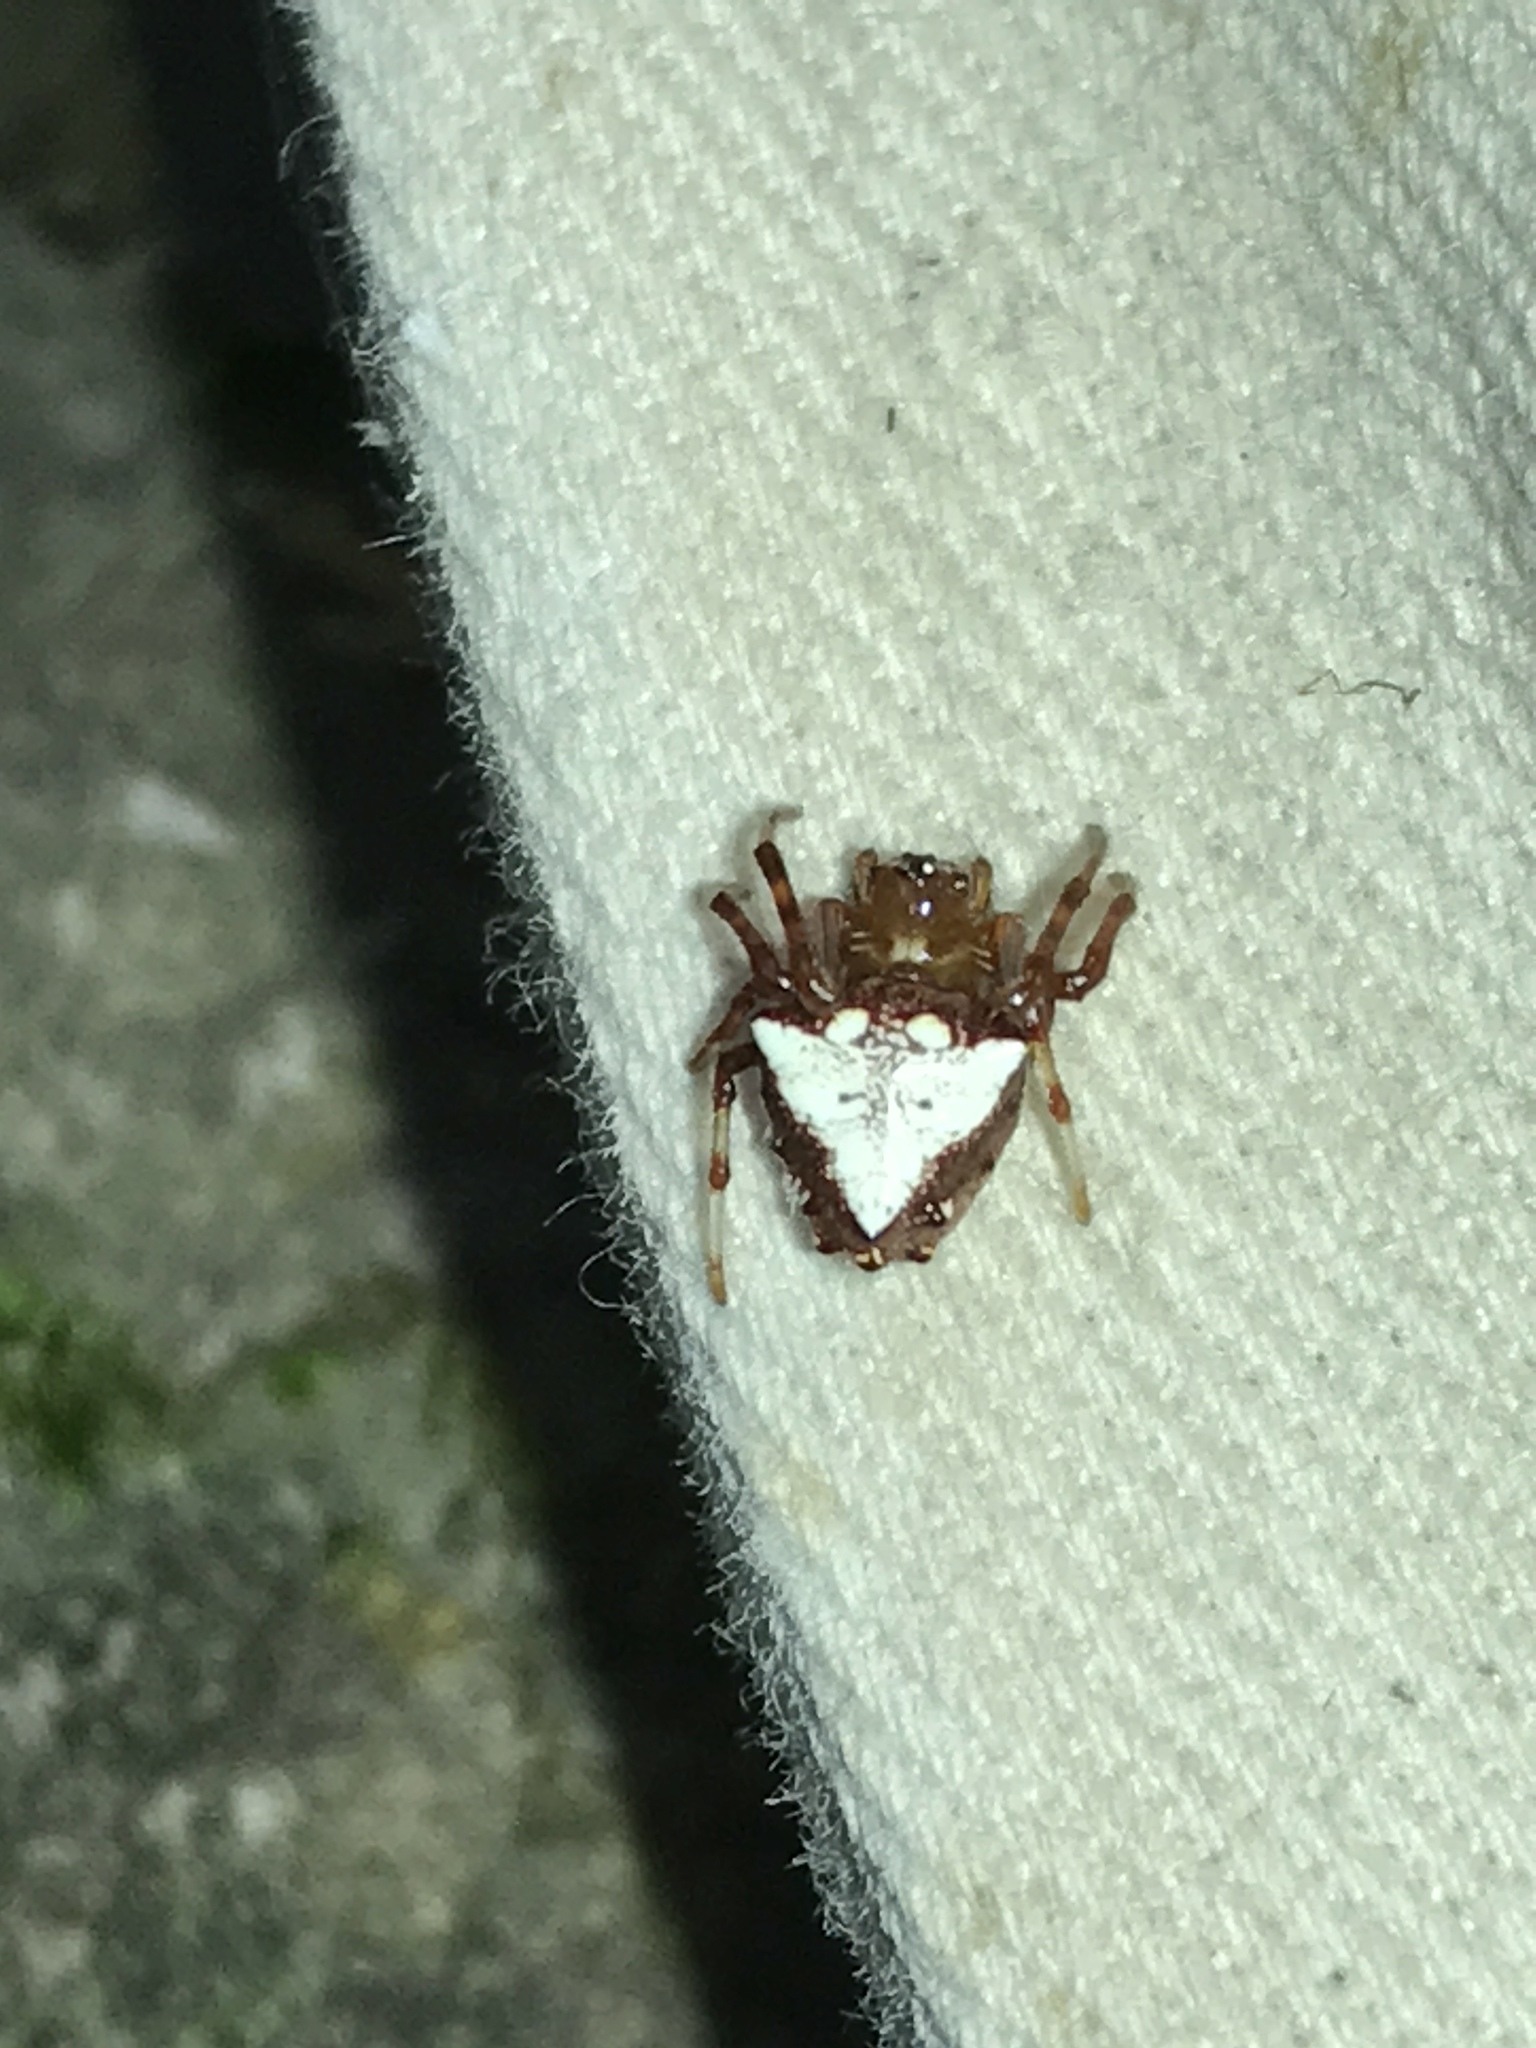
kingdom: Animalia
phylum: Arthropoda
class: Arachnida
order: Araneae
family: Araneidae
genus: Verrucosa
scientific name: Verrucosa arenata
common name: Orb weavers
